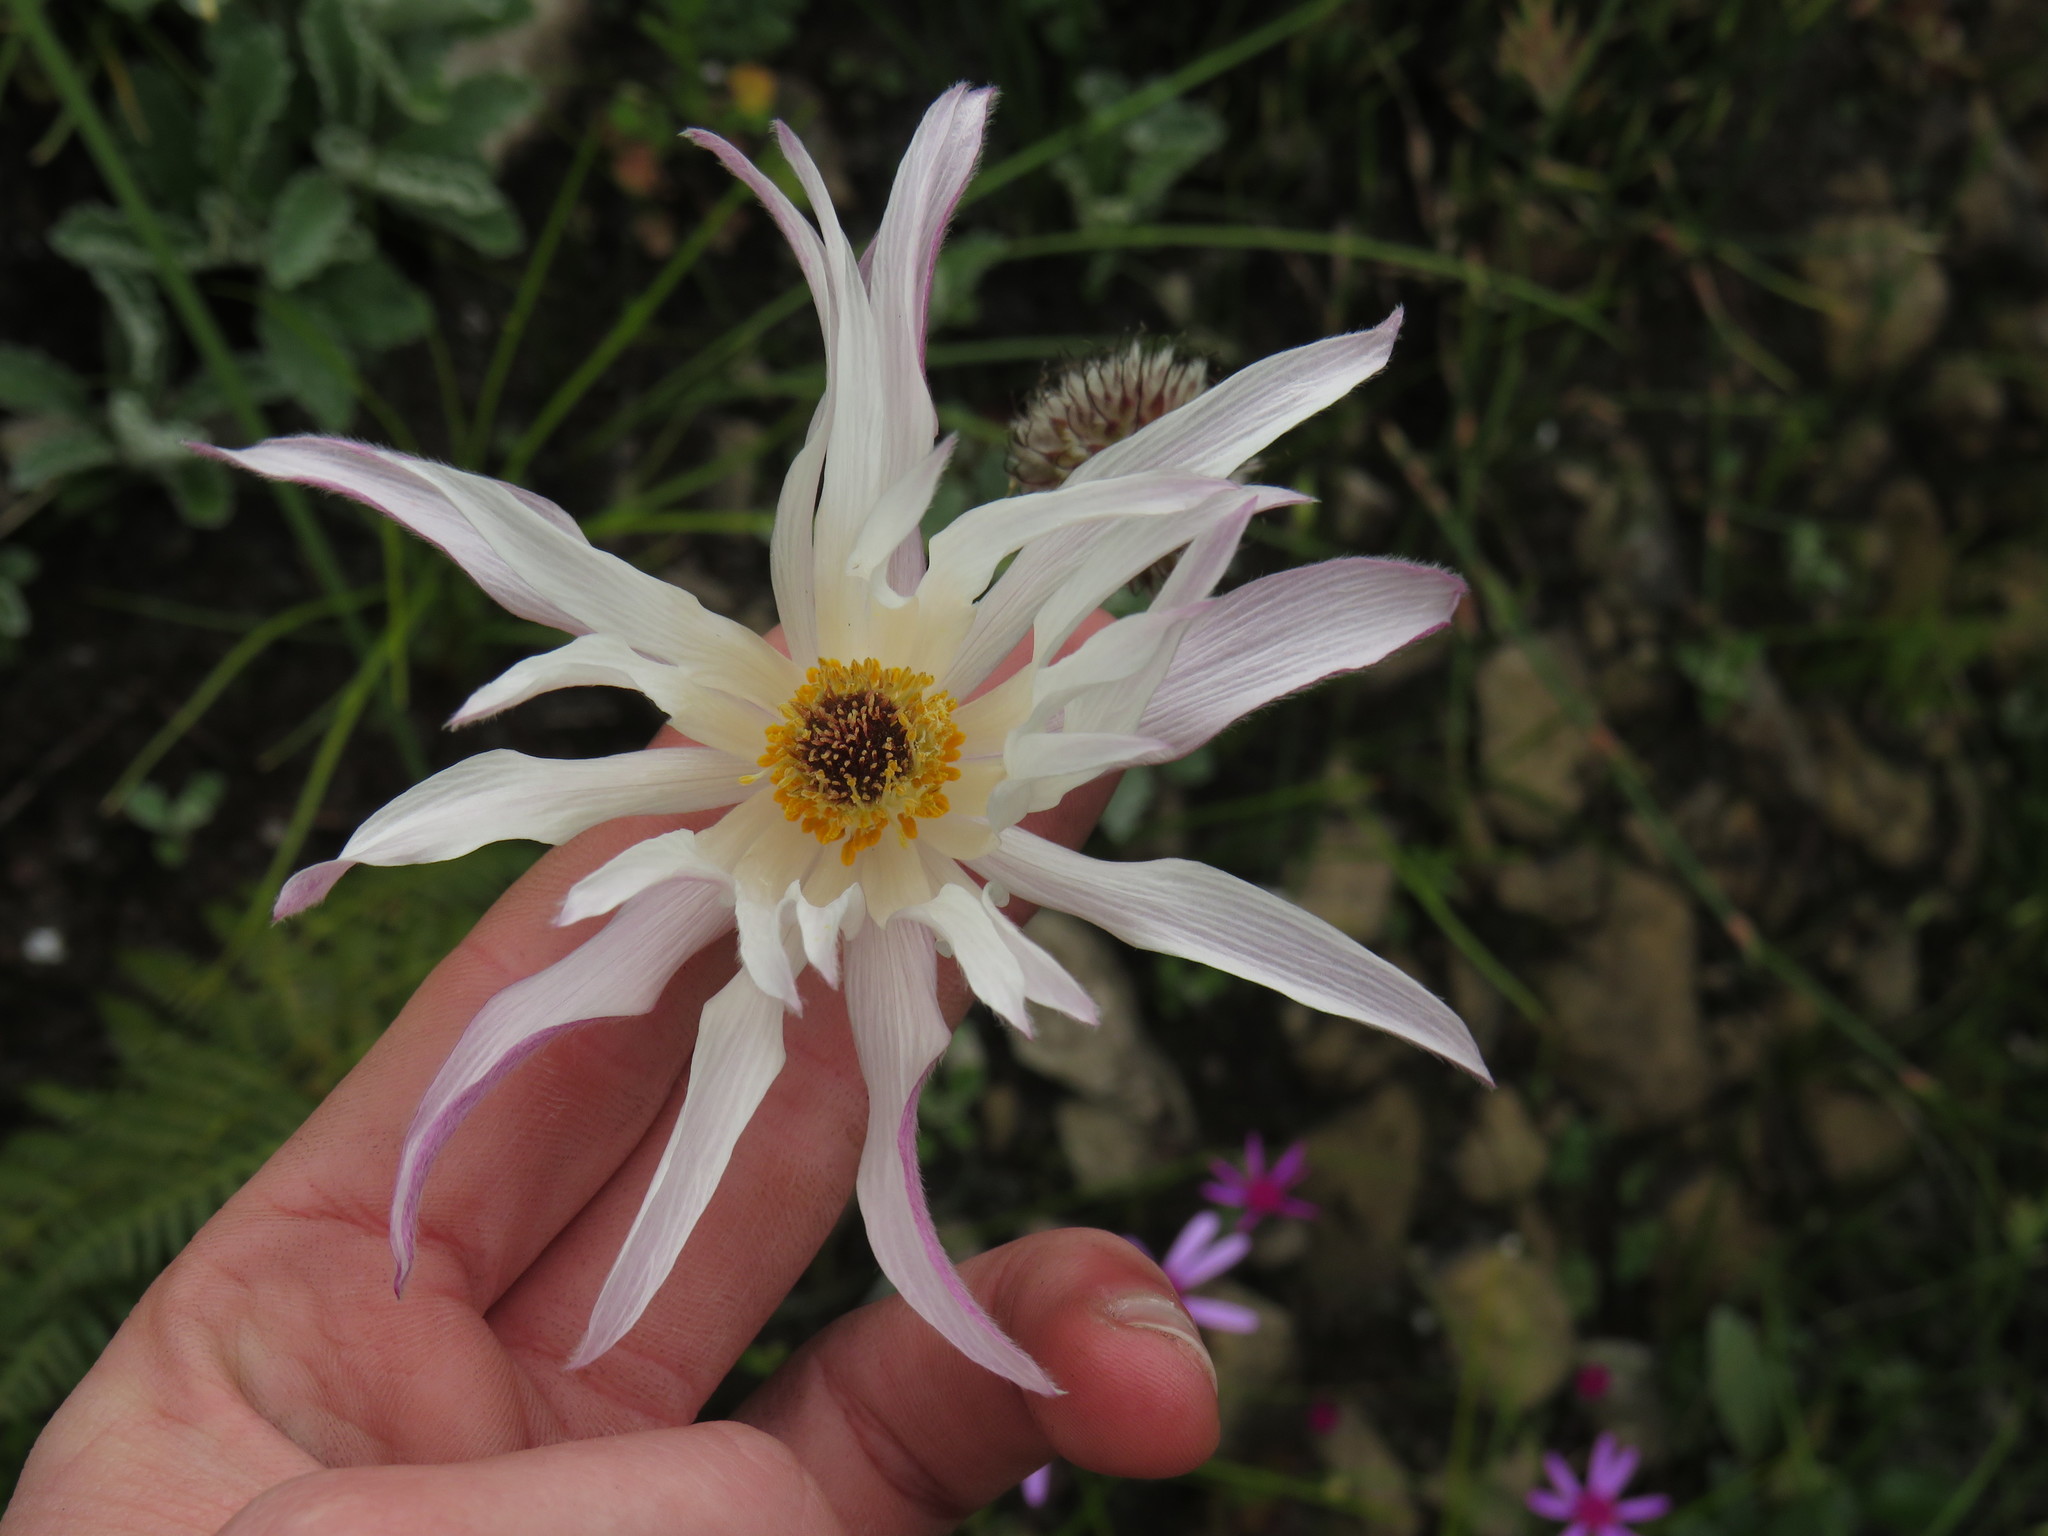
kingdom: Plantae
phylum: Tracheophyta
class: Magnoliopsida
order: Ranunculales
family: Ranunculaceae
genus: Knowltonia
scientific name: Knowltonia tenuifolia
